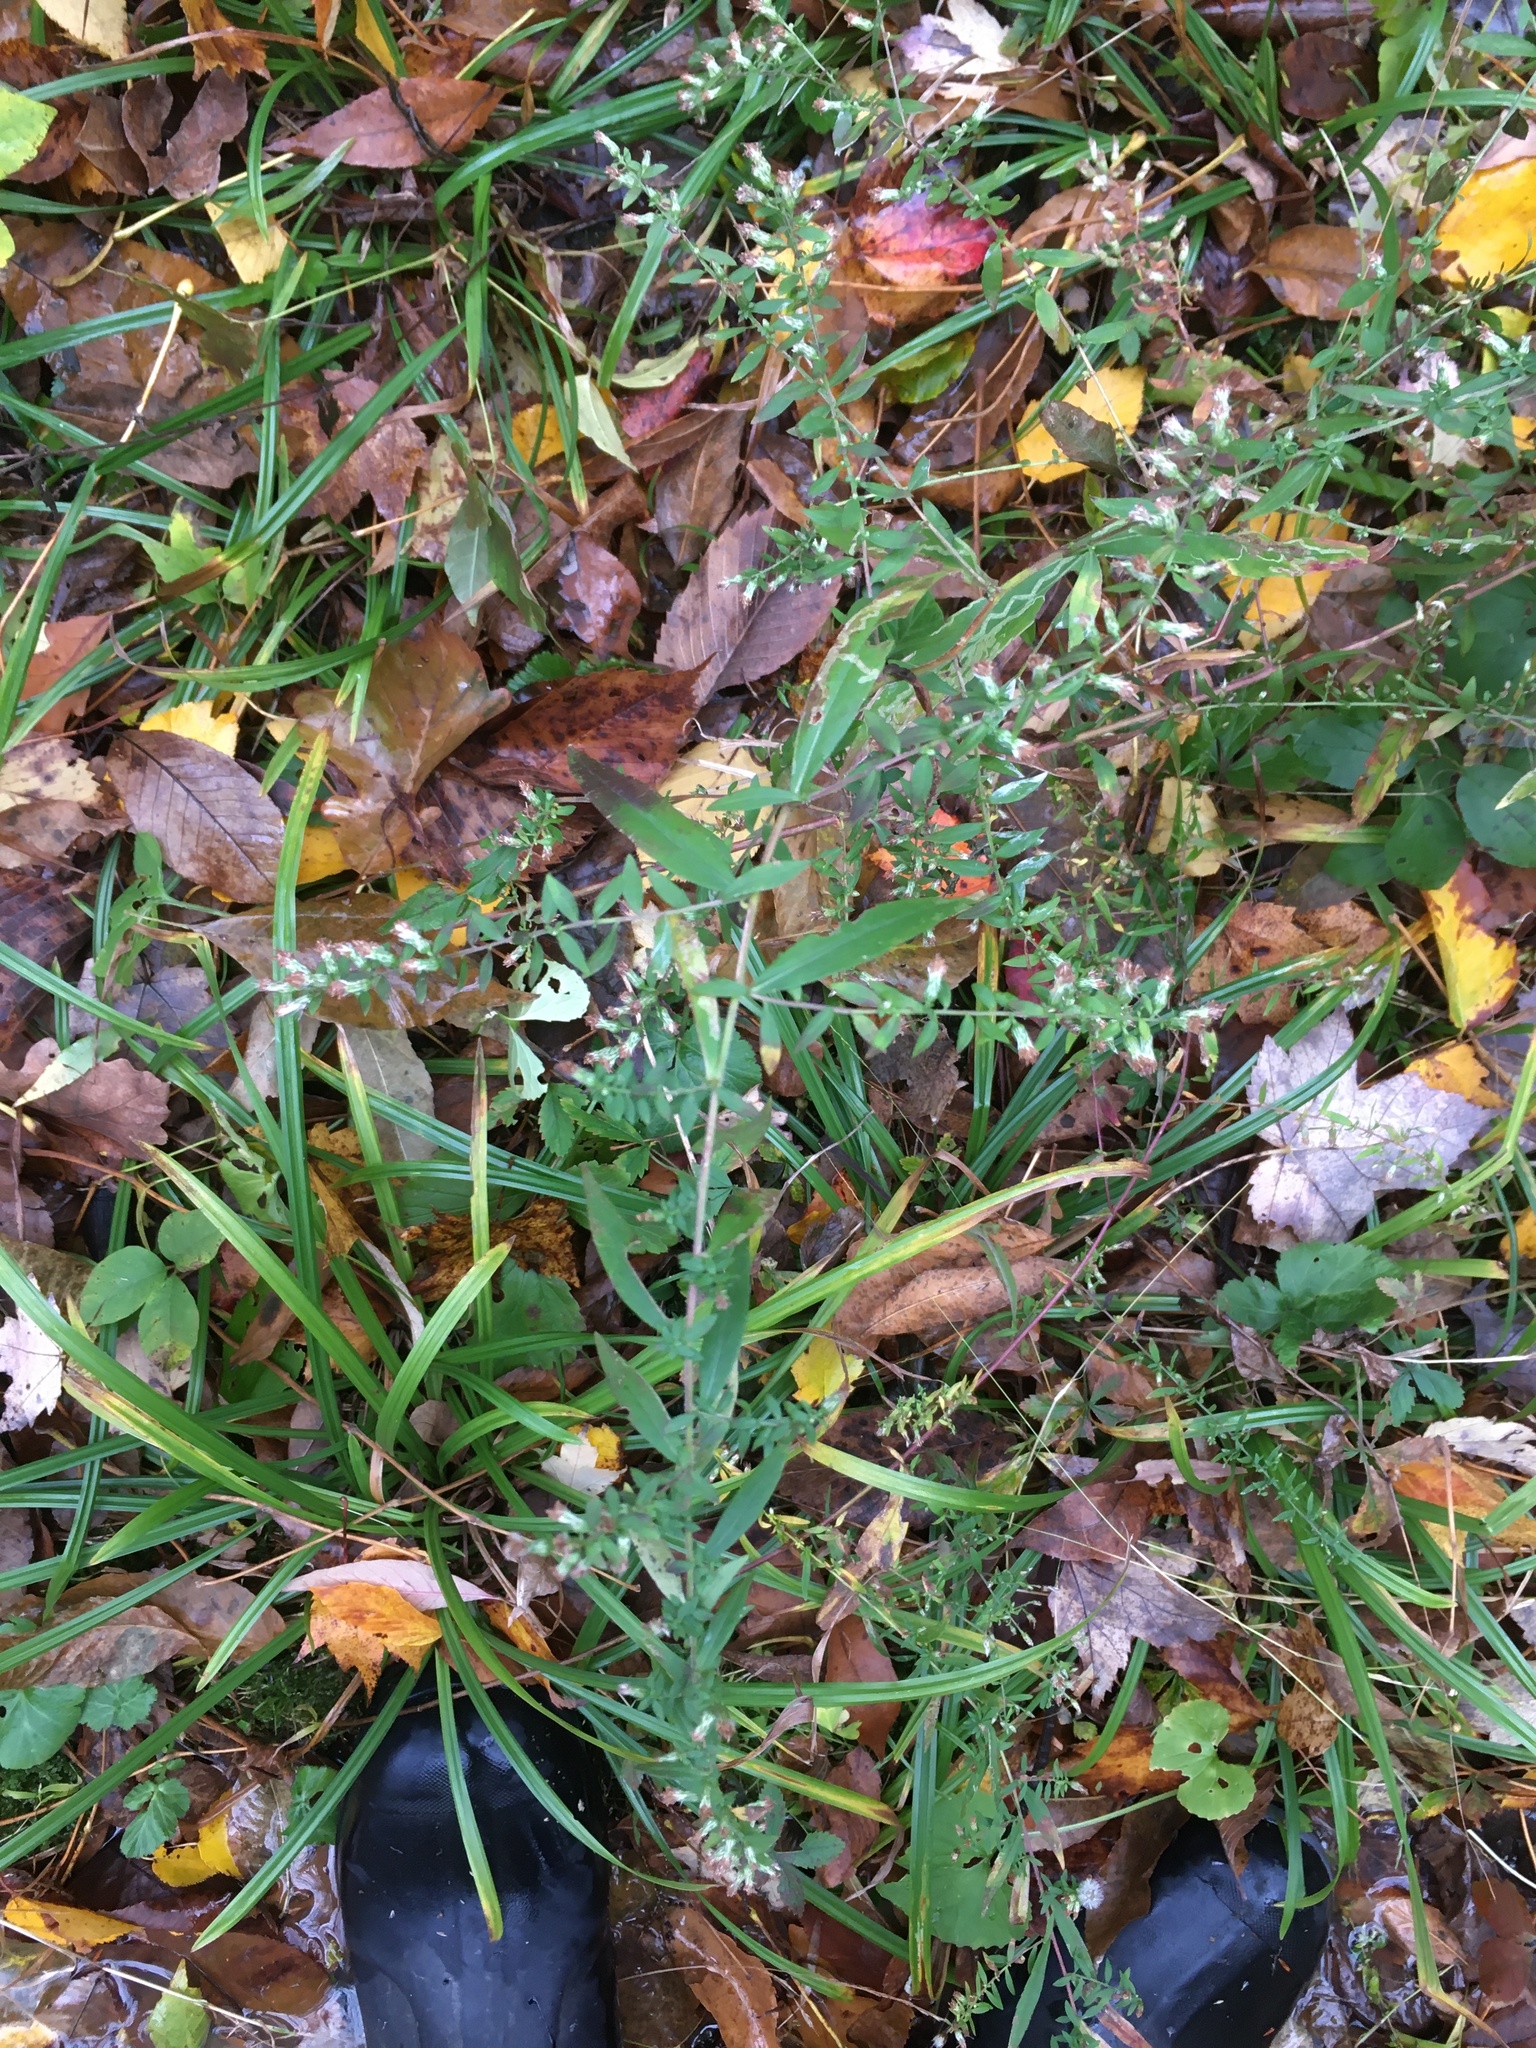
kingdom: Plantae
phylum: Tracheophyta
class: Magnoliopsida
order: Asterales
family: Asteraceae
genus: Symphyotrichum
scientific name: Symphyotrichum lateriflorum
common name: Calico aster
